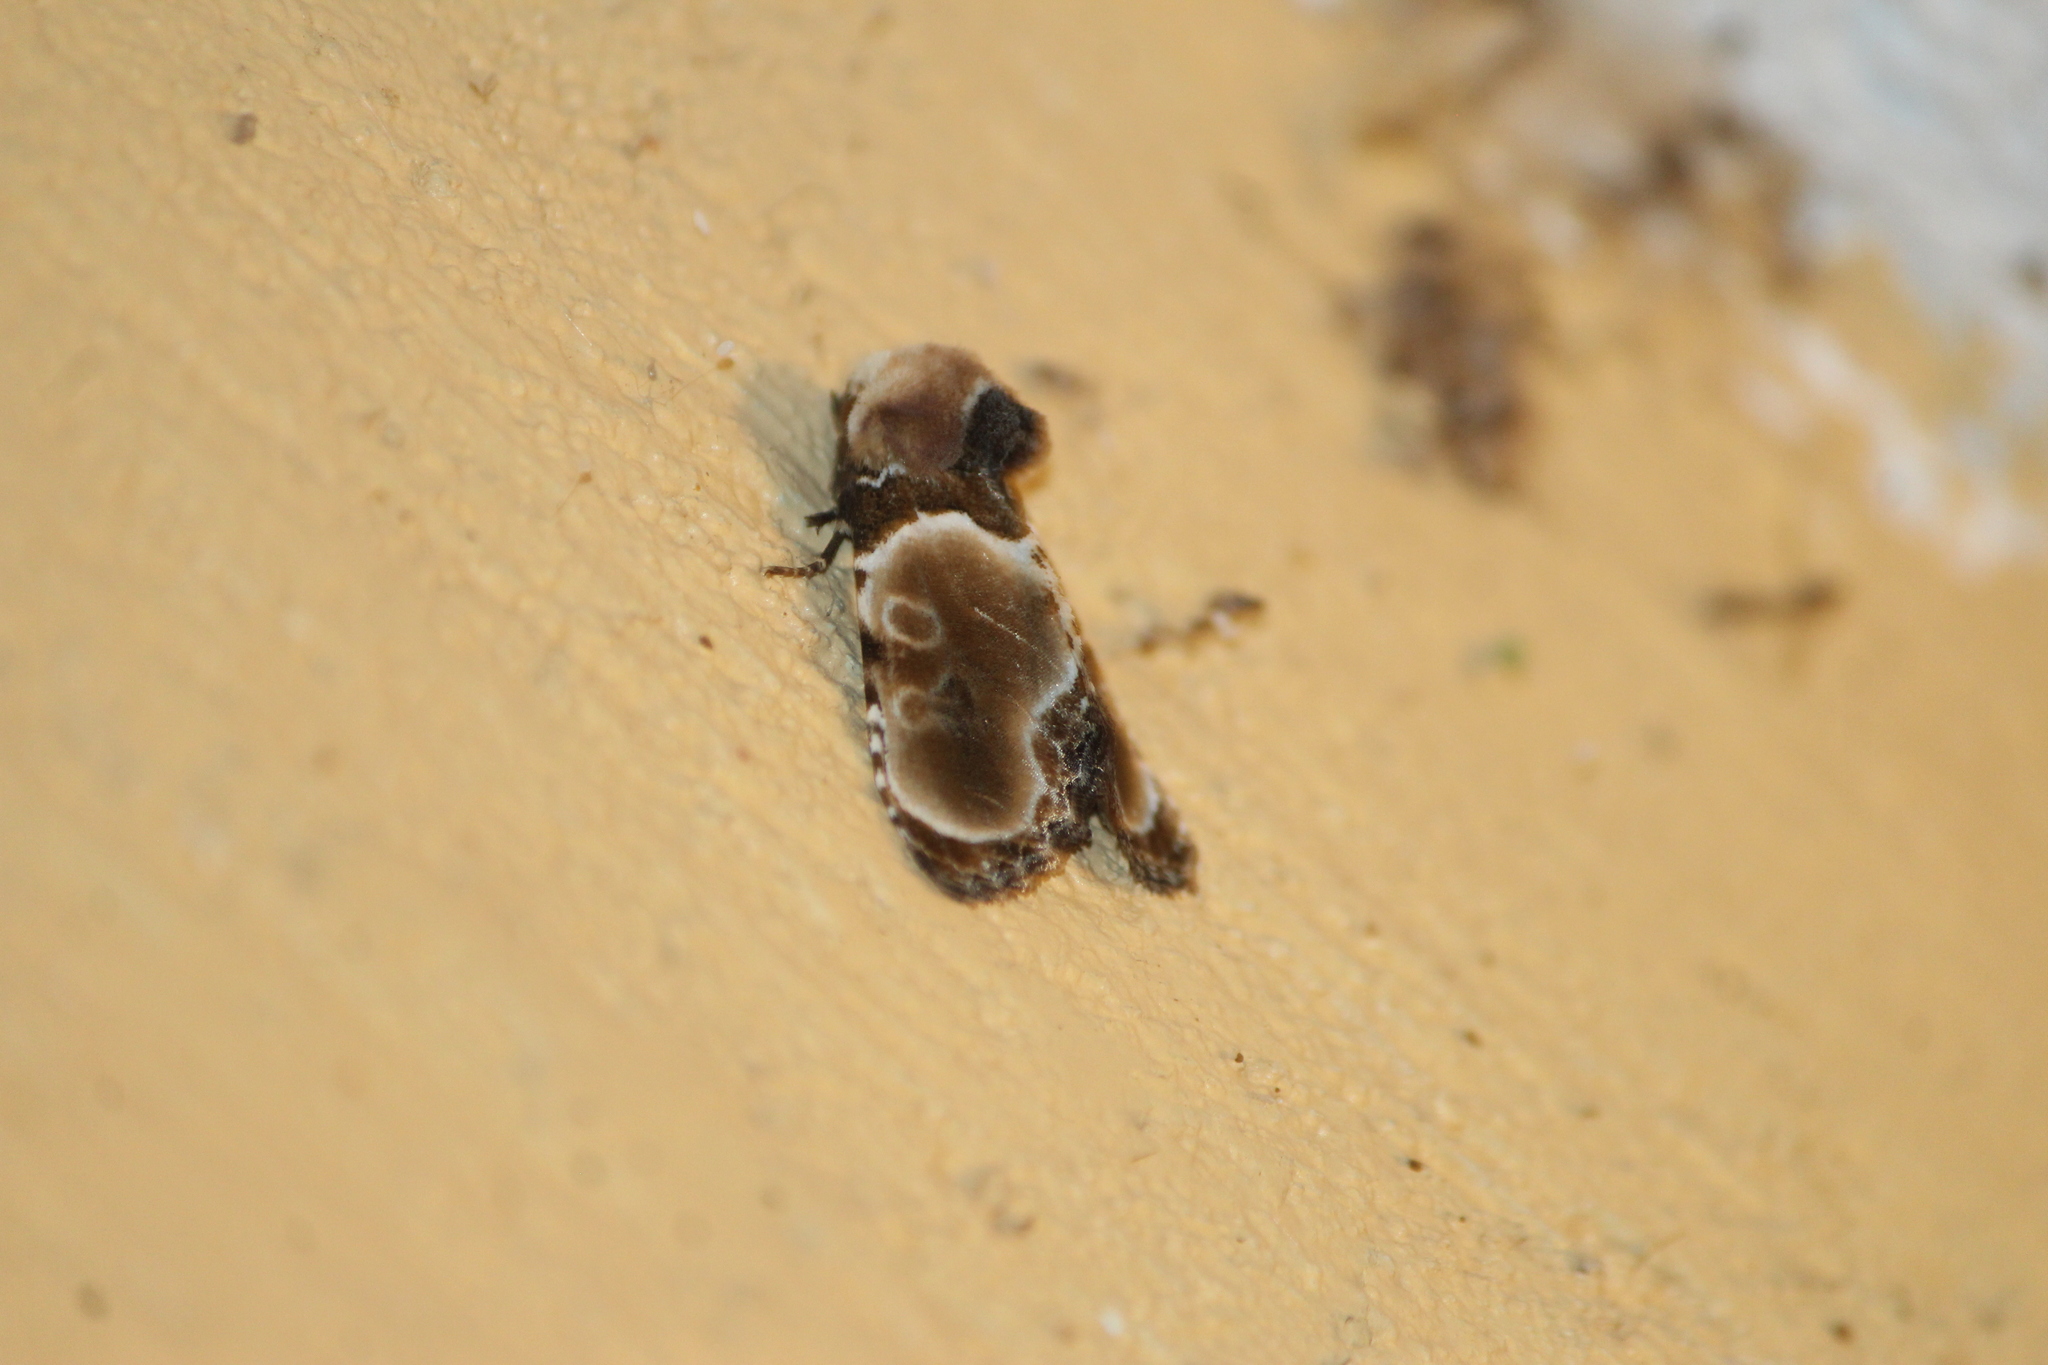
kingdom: Animalia
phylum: Arthropoda
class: Insecta
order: Lepidoptera
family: Noctuidae
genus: Thyatirodes
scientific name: Thyatirodes godalma
